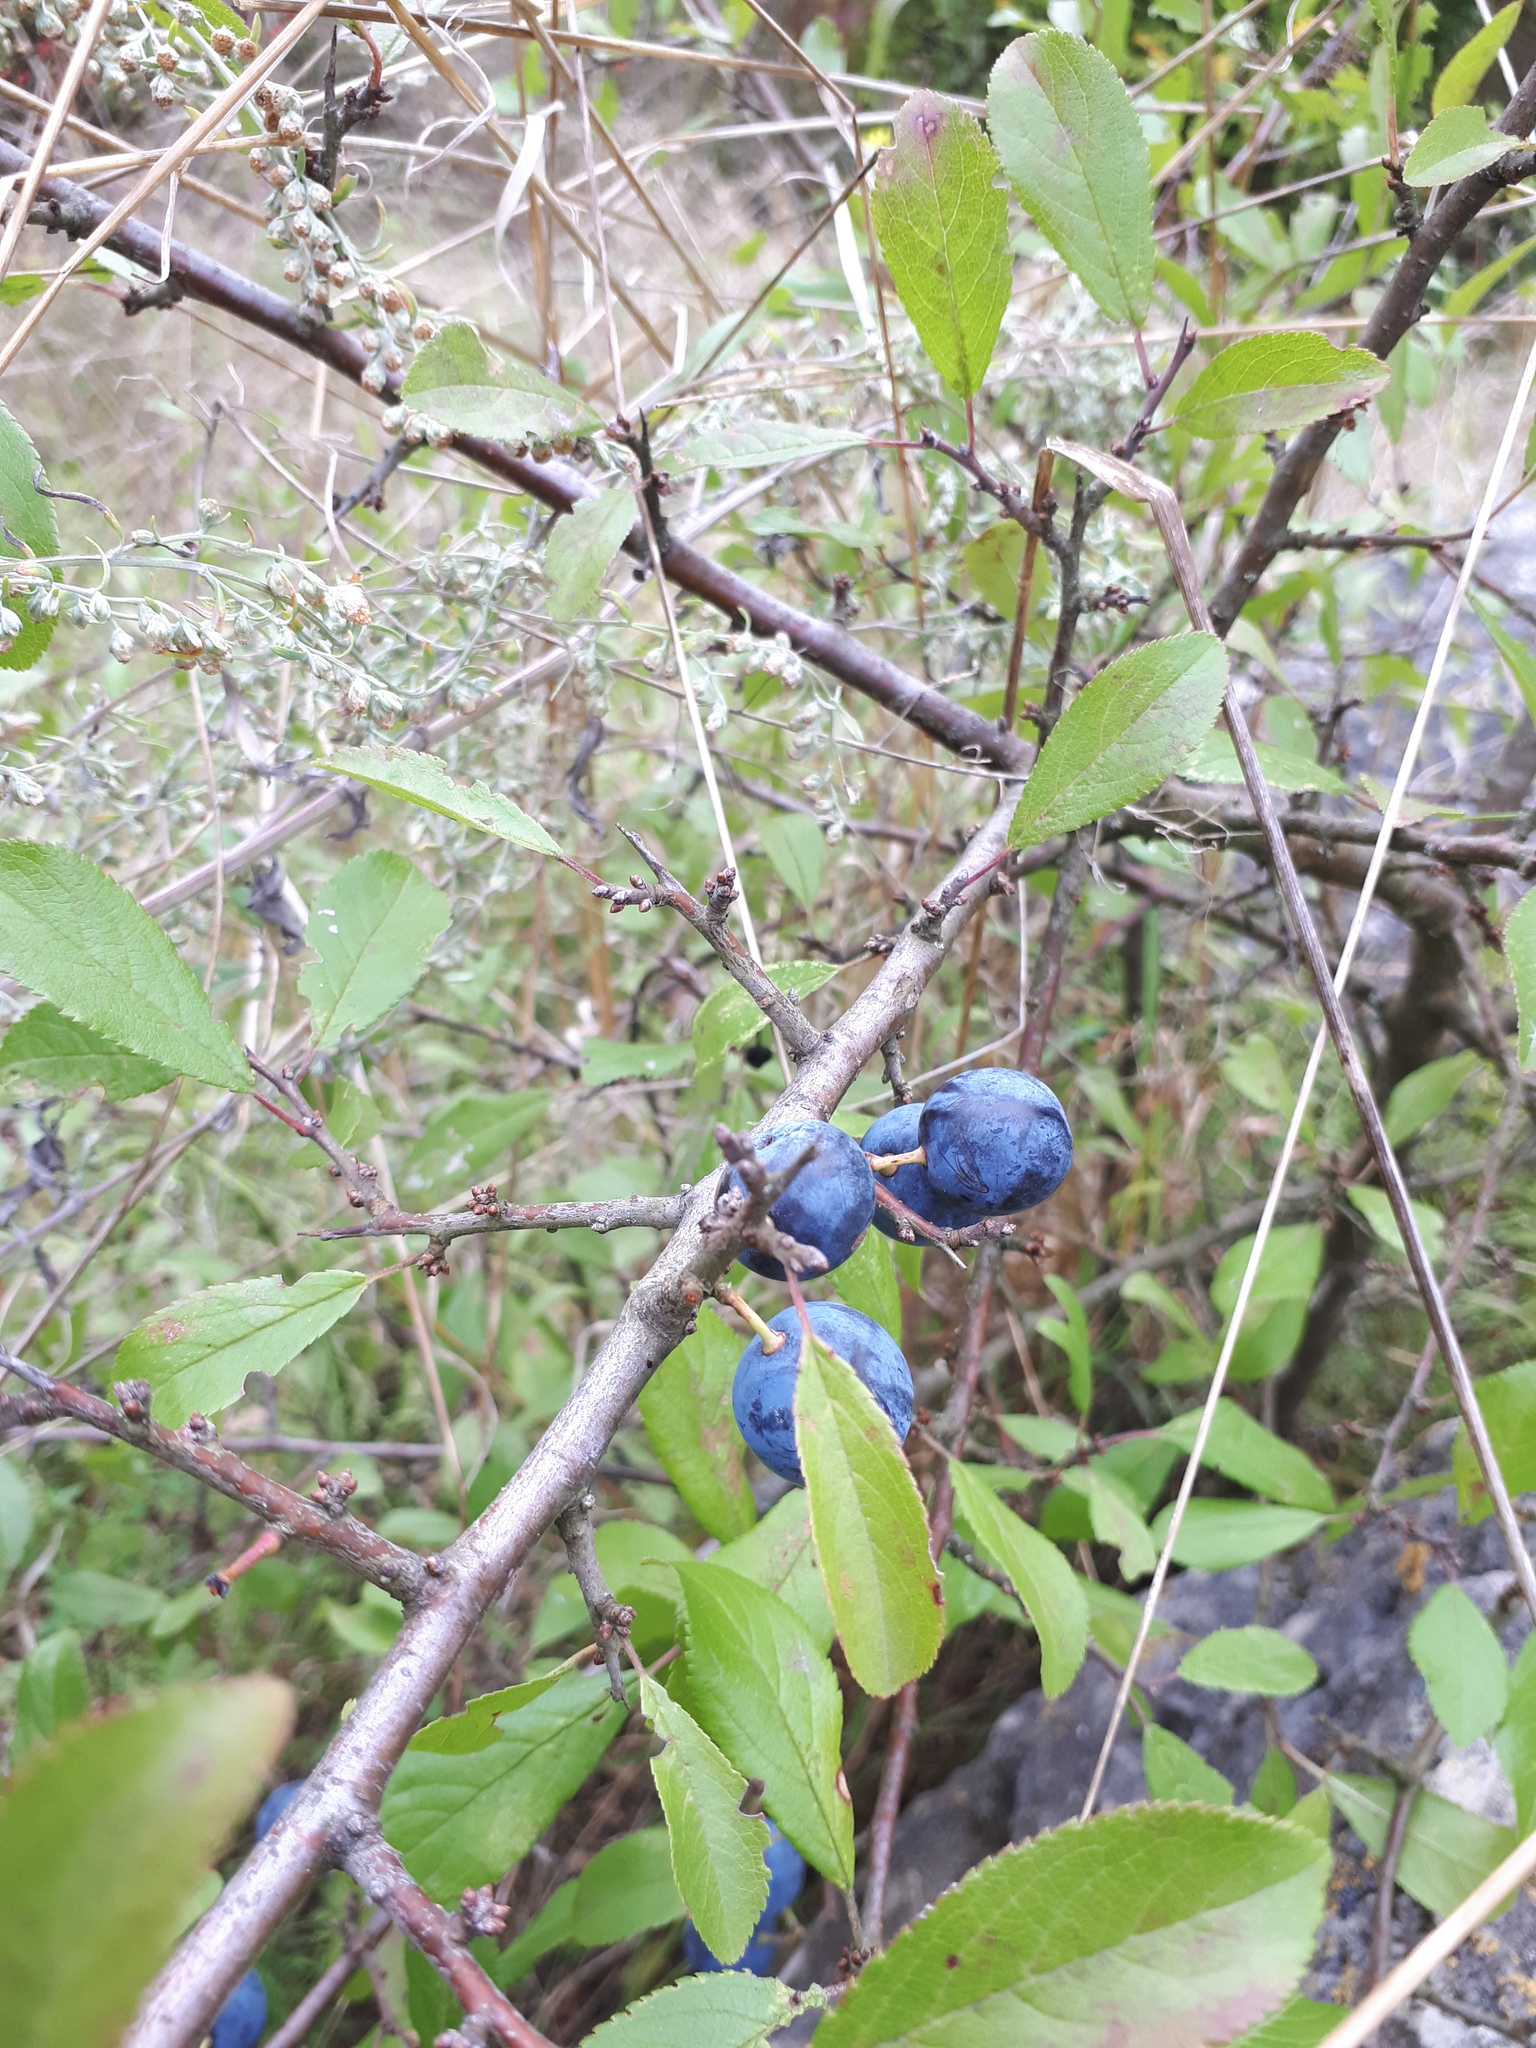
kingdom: Plantae
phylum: Tracheophyta
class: Magnoliopsida
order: Rosales
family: Rosaceae
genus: Prunus
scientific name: Prunus spinosa
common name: Blackthorn
